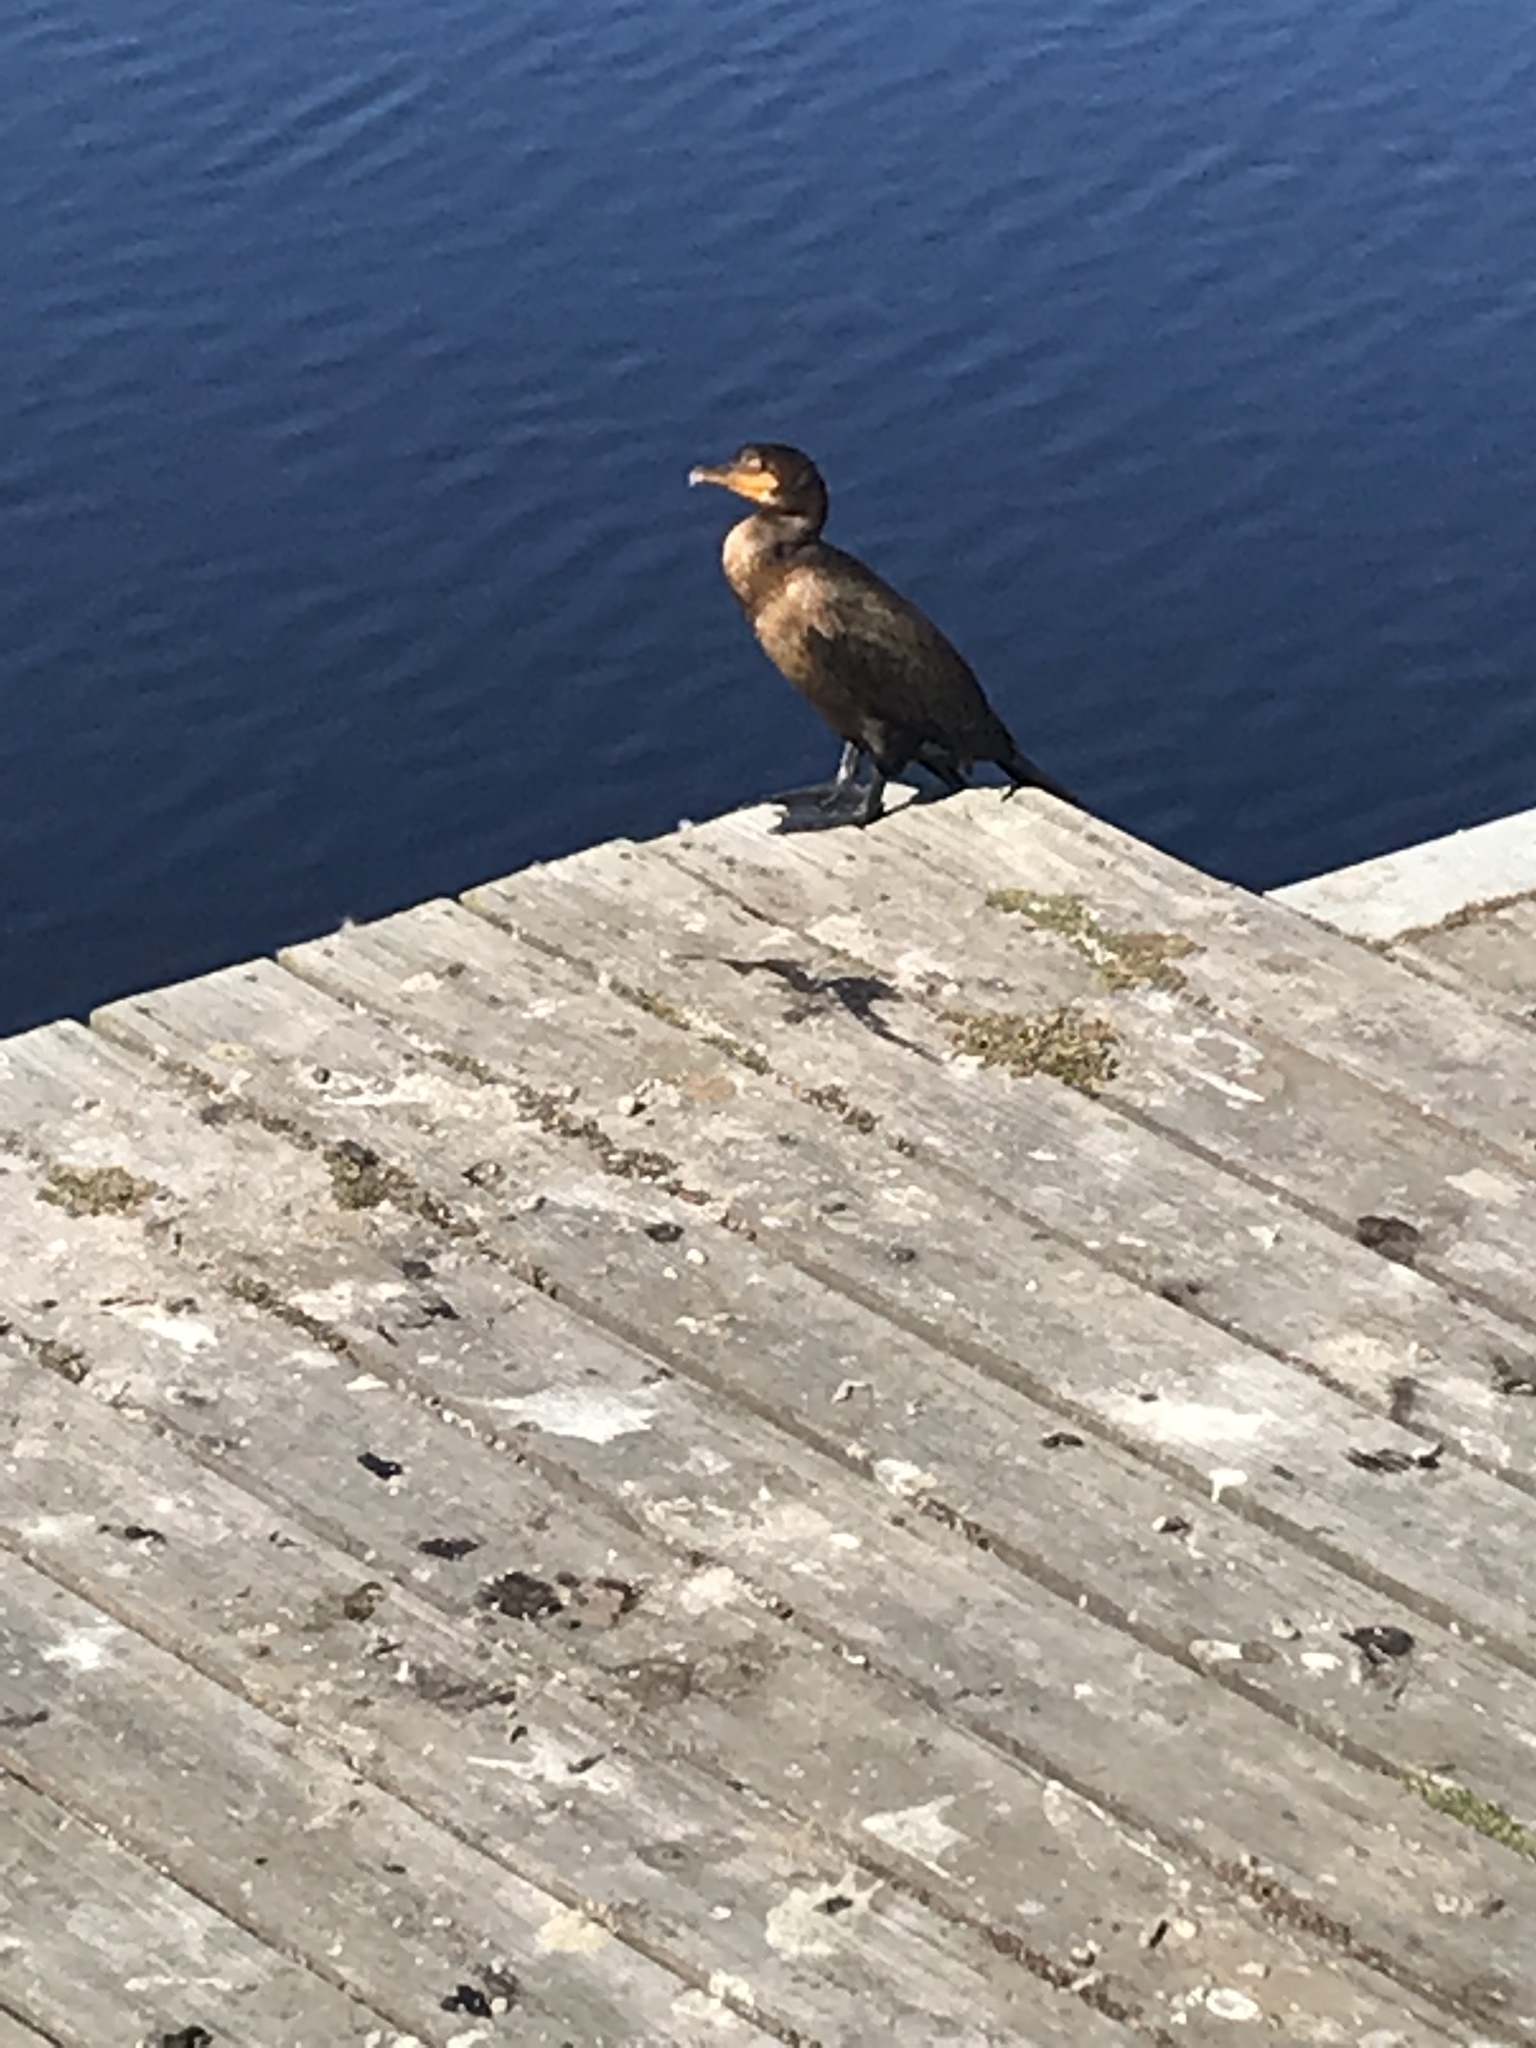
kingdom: Animalia
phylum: Chordata
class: Aves
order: Suliformes
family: Phalacrocoracidae
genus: Phalacrocorax
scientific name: Phalacrocorax auritus
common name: Double-crested cormorant
